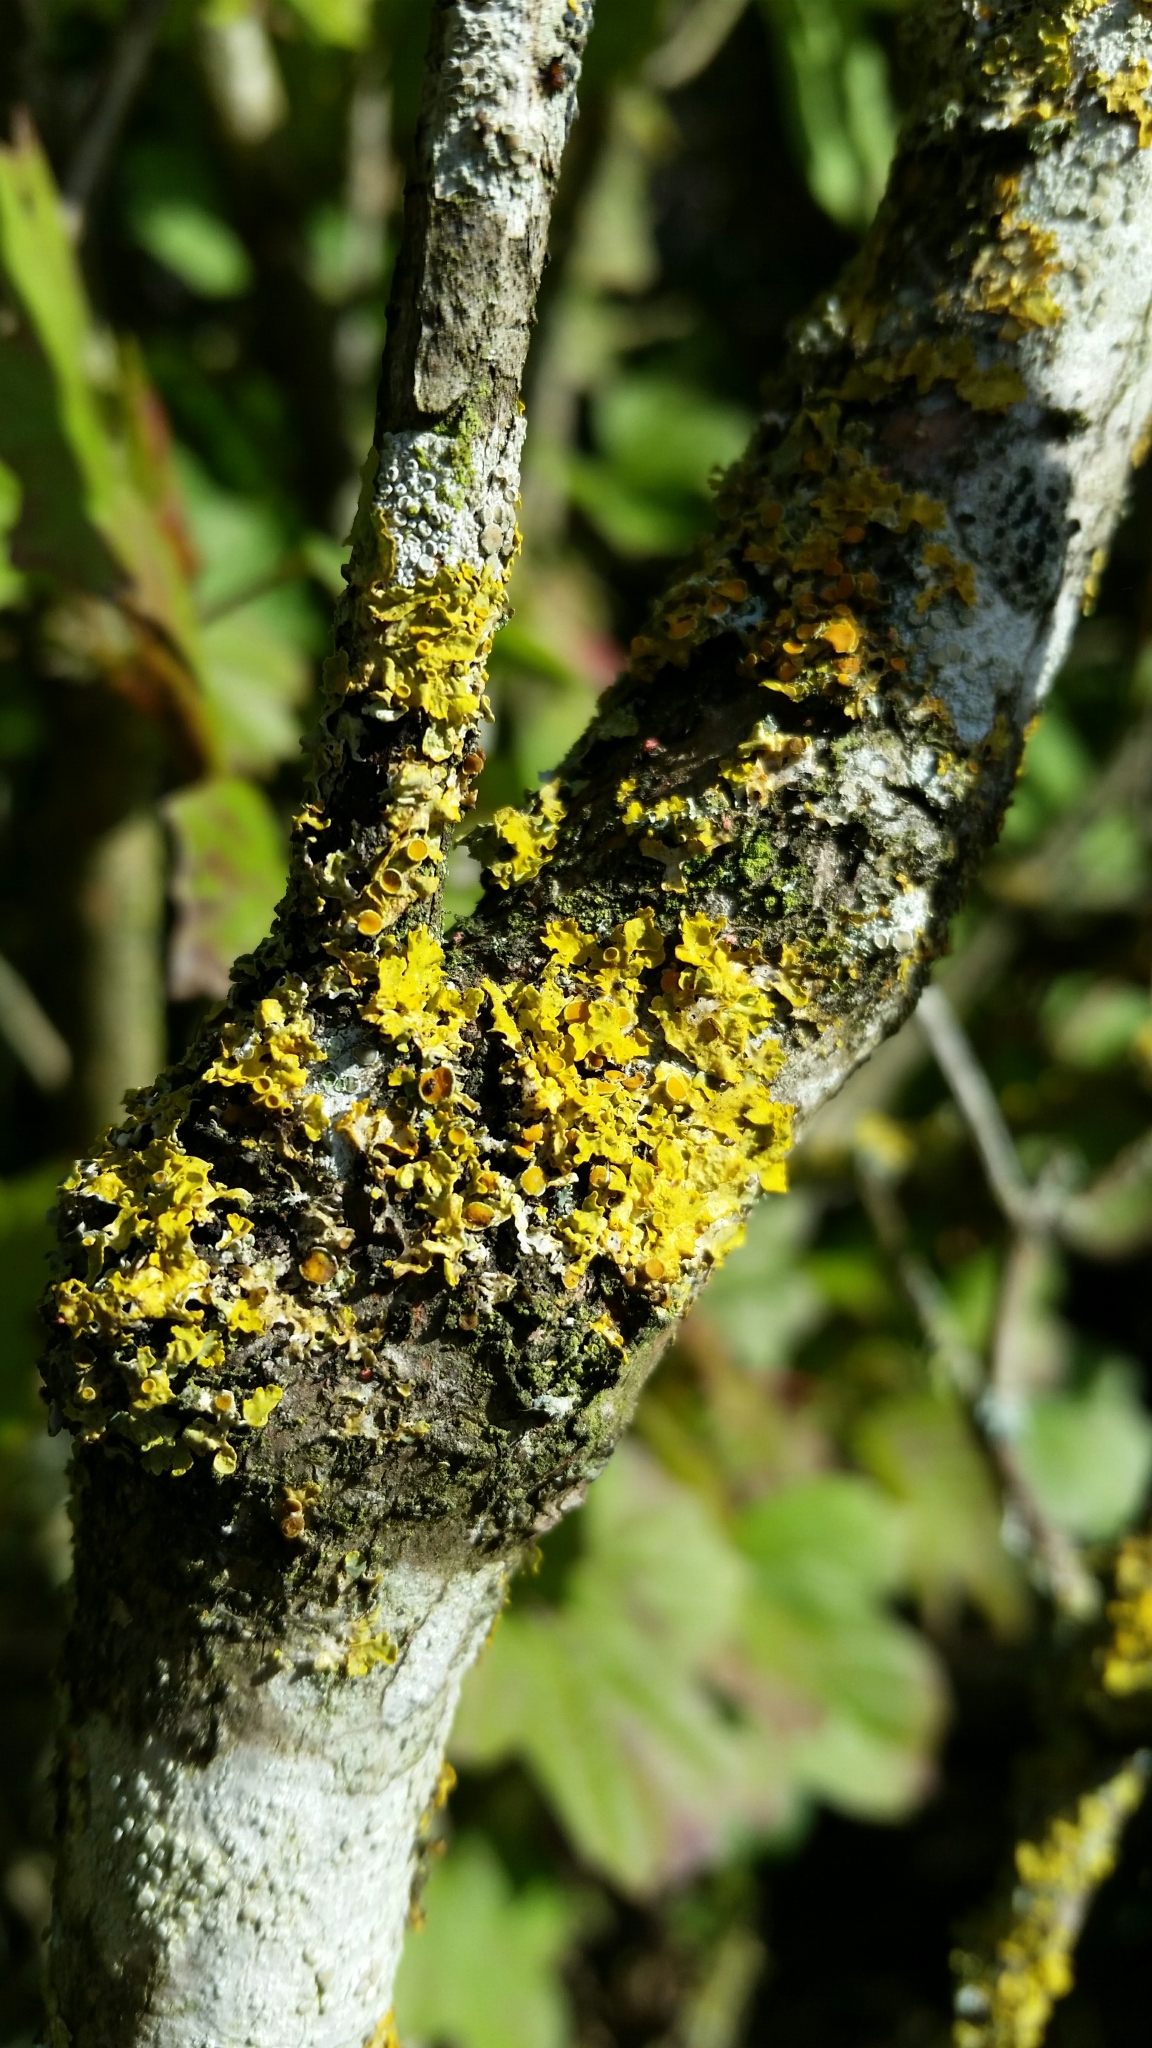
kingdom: Fungi
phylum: Ascomycota
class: Lecanoromycetes
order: Teloschistales
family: Teloschistaceae
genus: Xanthoria
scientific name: Xanthoria parietina
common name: Common orange lichen
